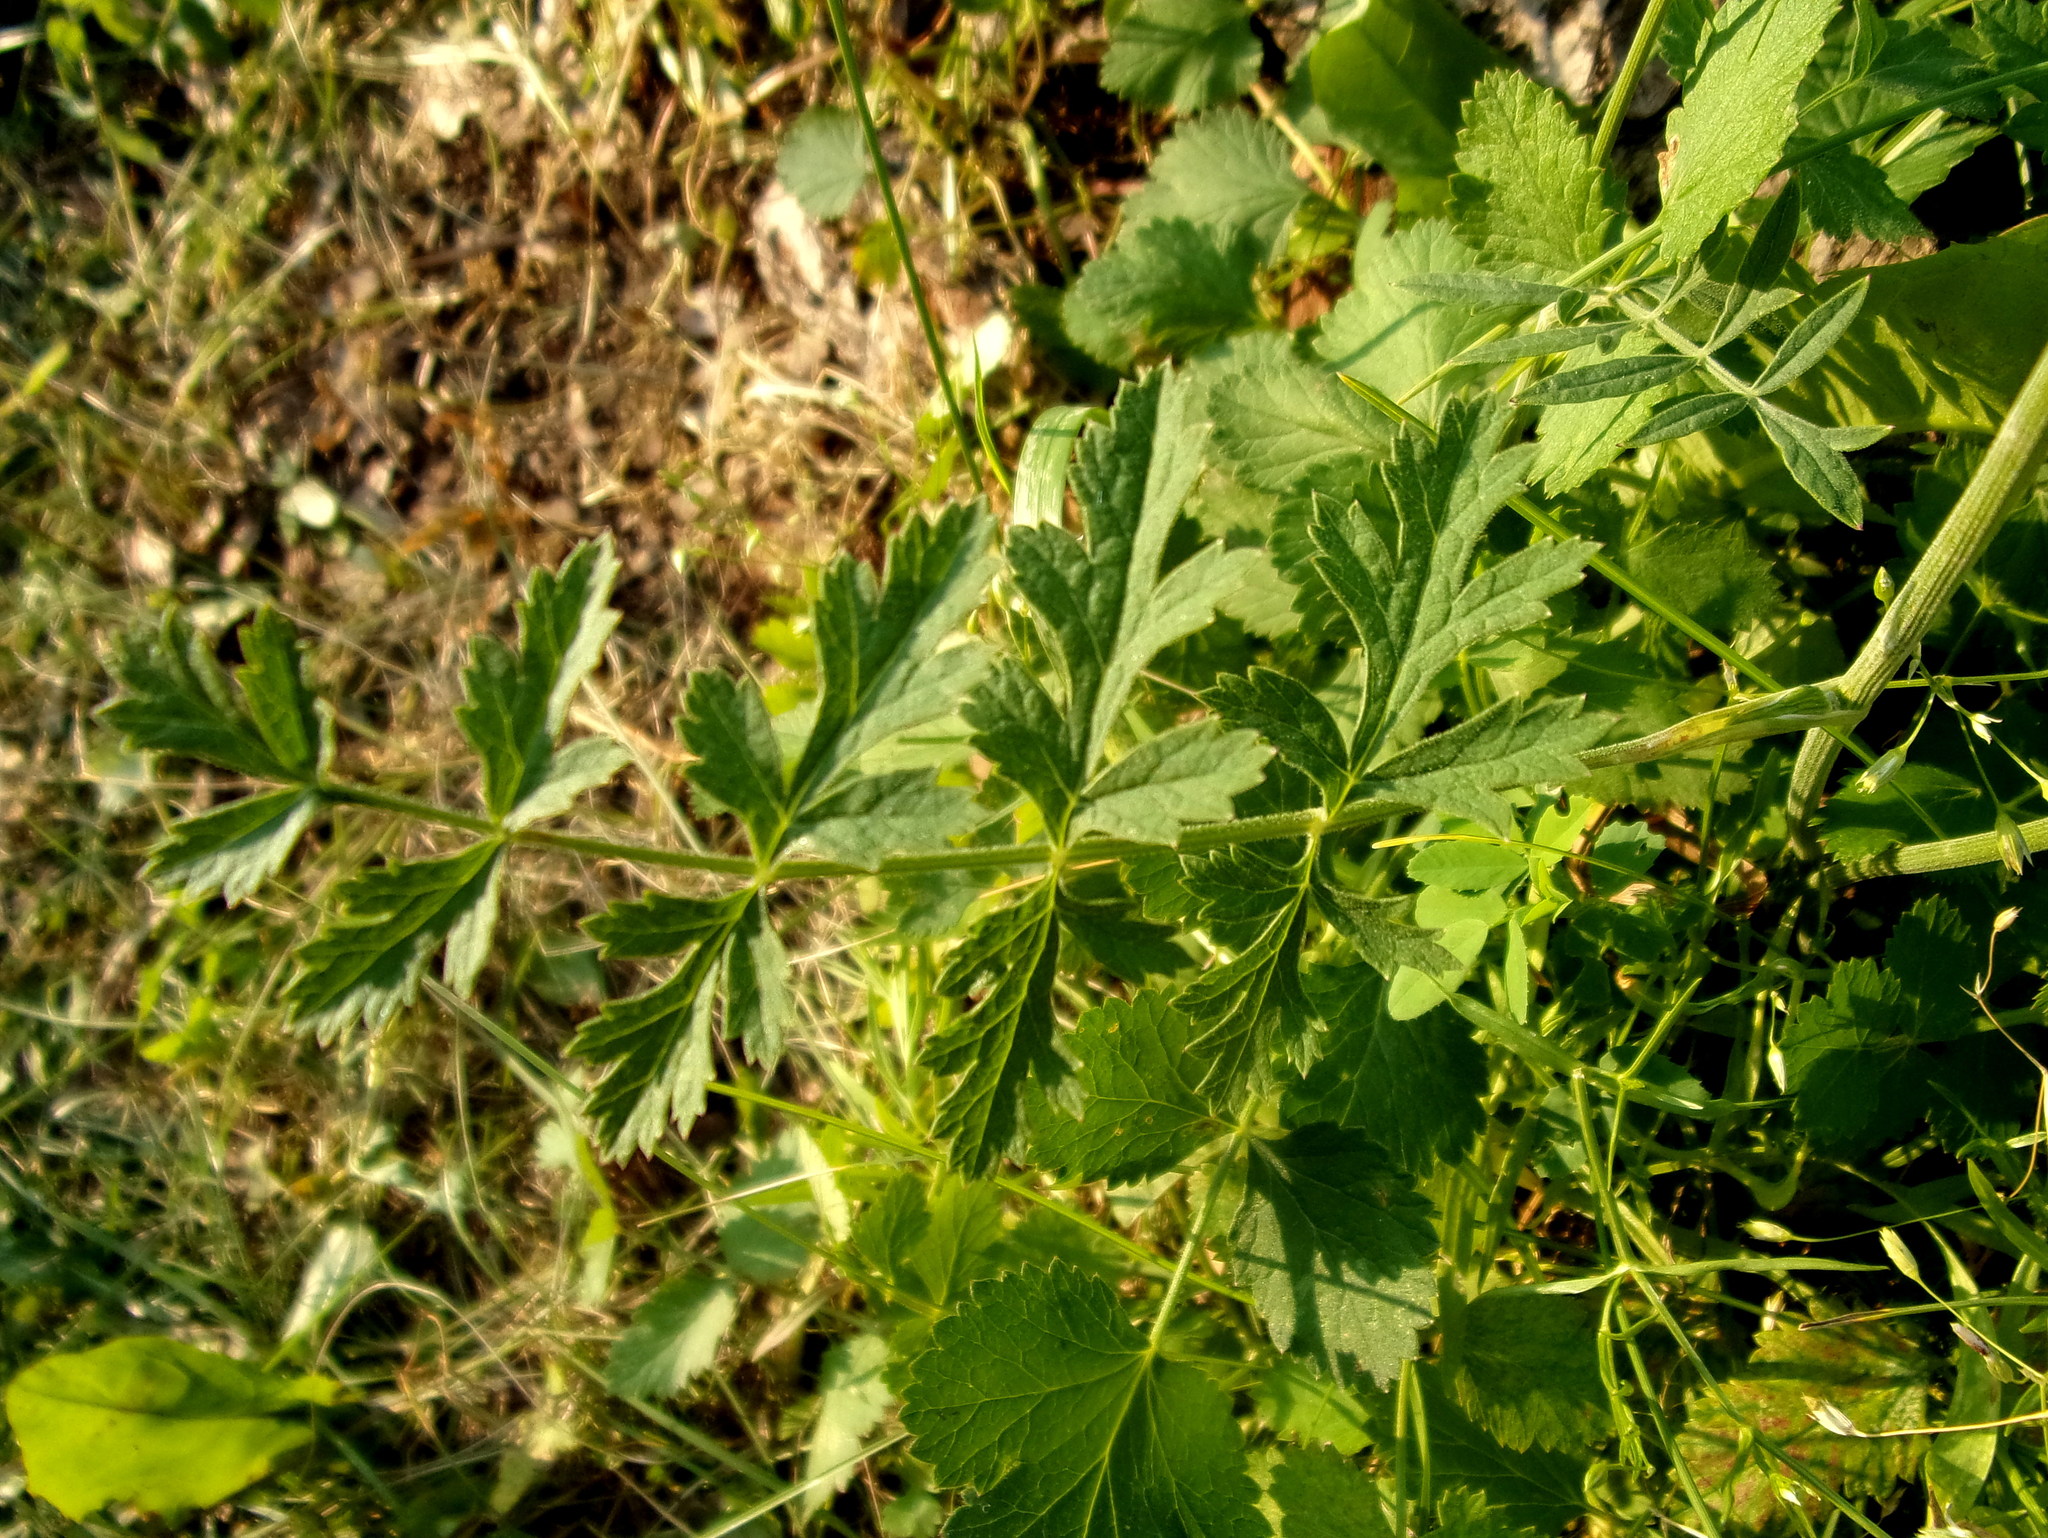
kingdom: Plantae
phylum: Tracheophyta
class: Magnoliopsida
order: Apiales
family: Apiaceae
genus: Pimpinella
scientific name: Pimpinella saxifraga
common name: Burnet-saxifrage
